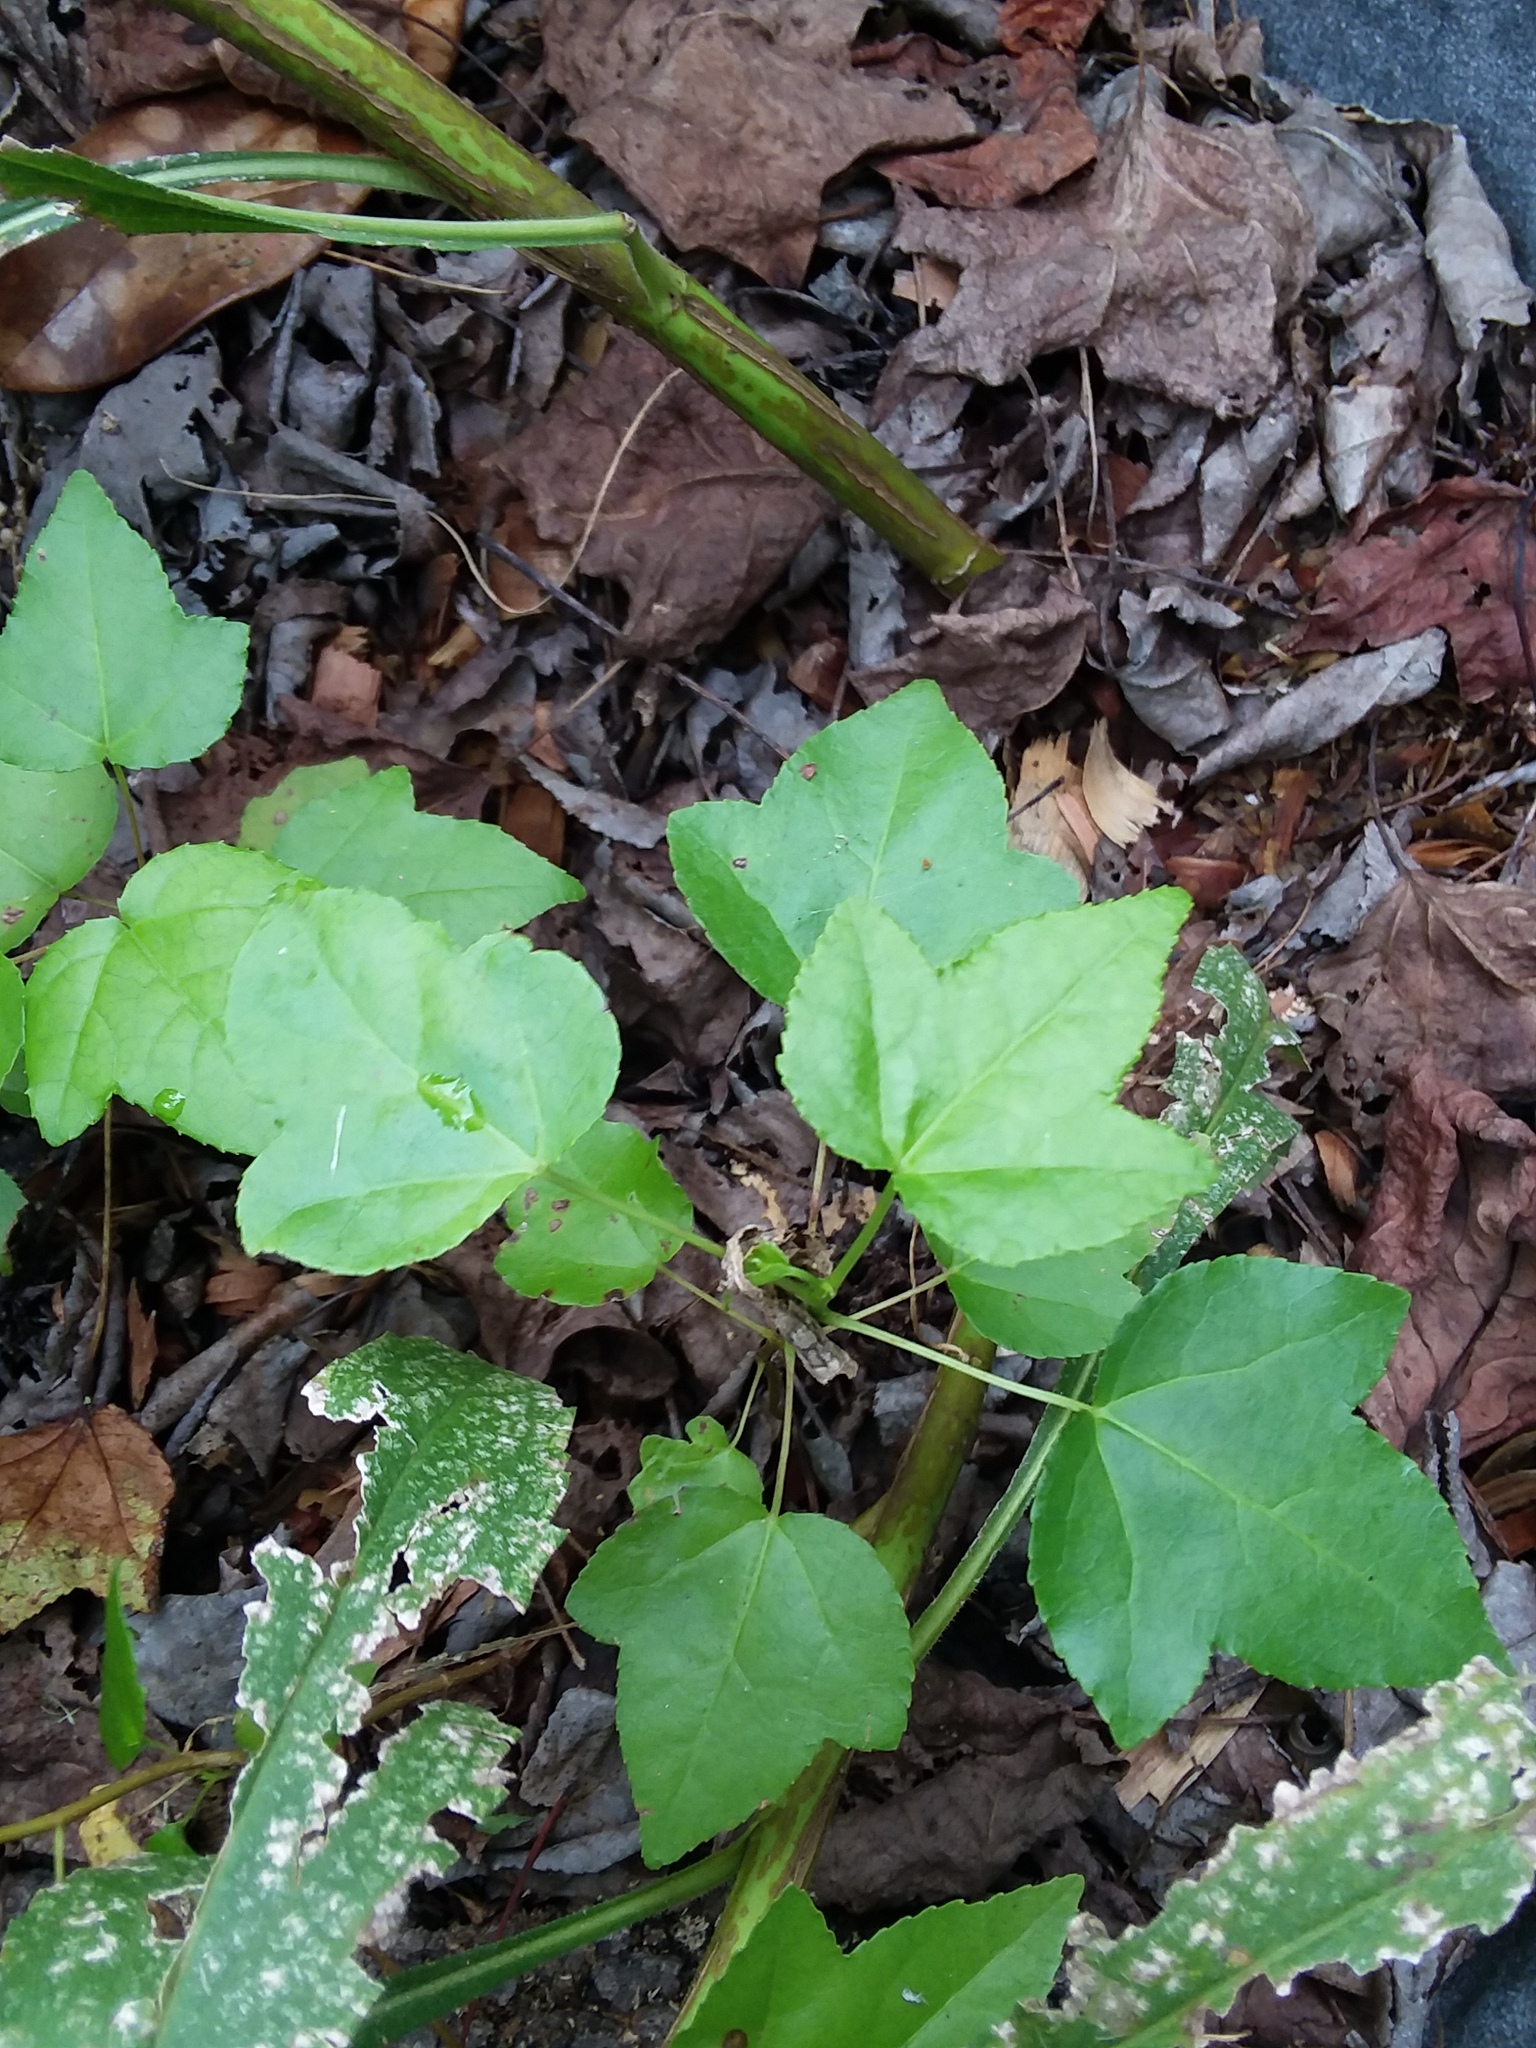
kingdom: Plantae
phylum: Tracheophyta
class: Magnoliopsida
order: Saxifragales
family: Altingiaceae
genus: Liquidambar
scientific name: Liquidambar styraciflua
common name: Sweet gum
